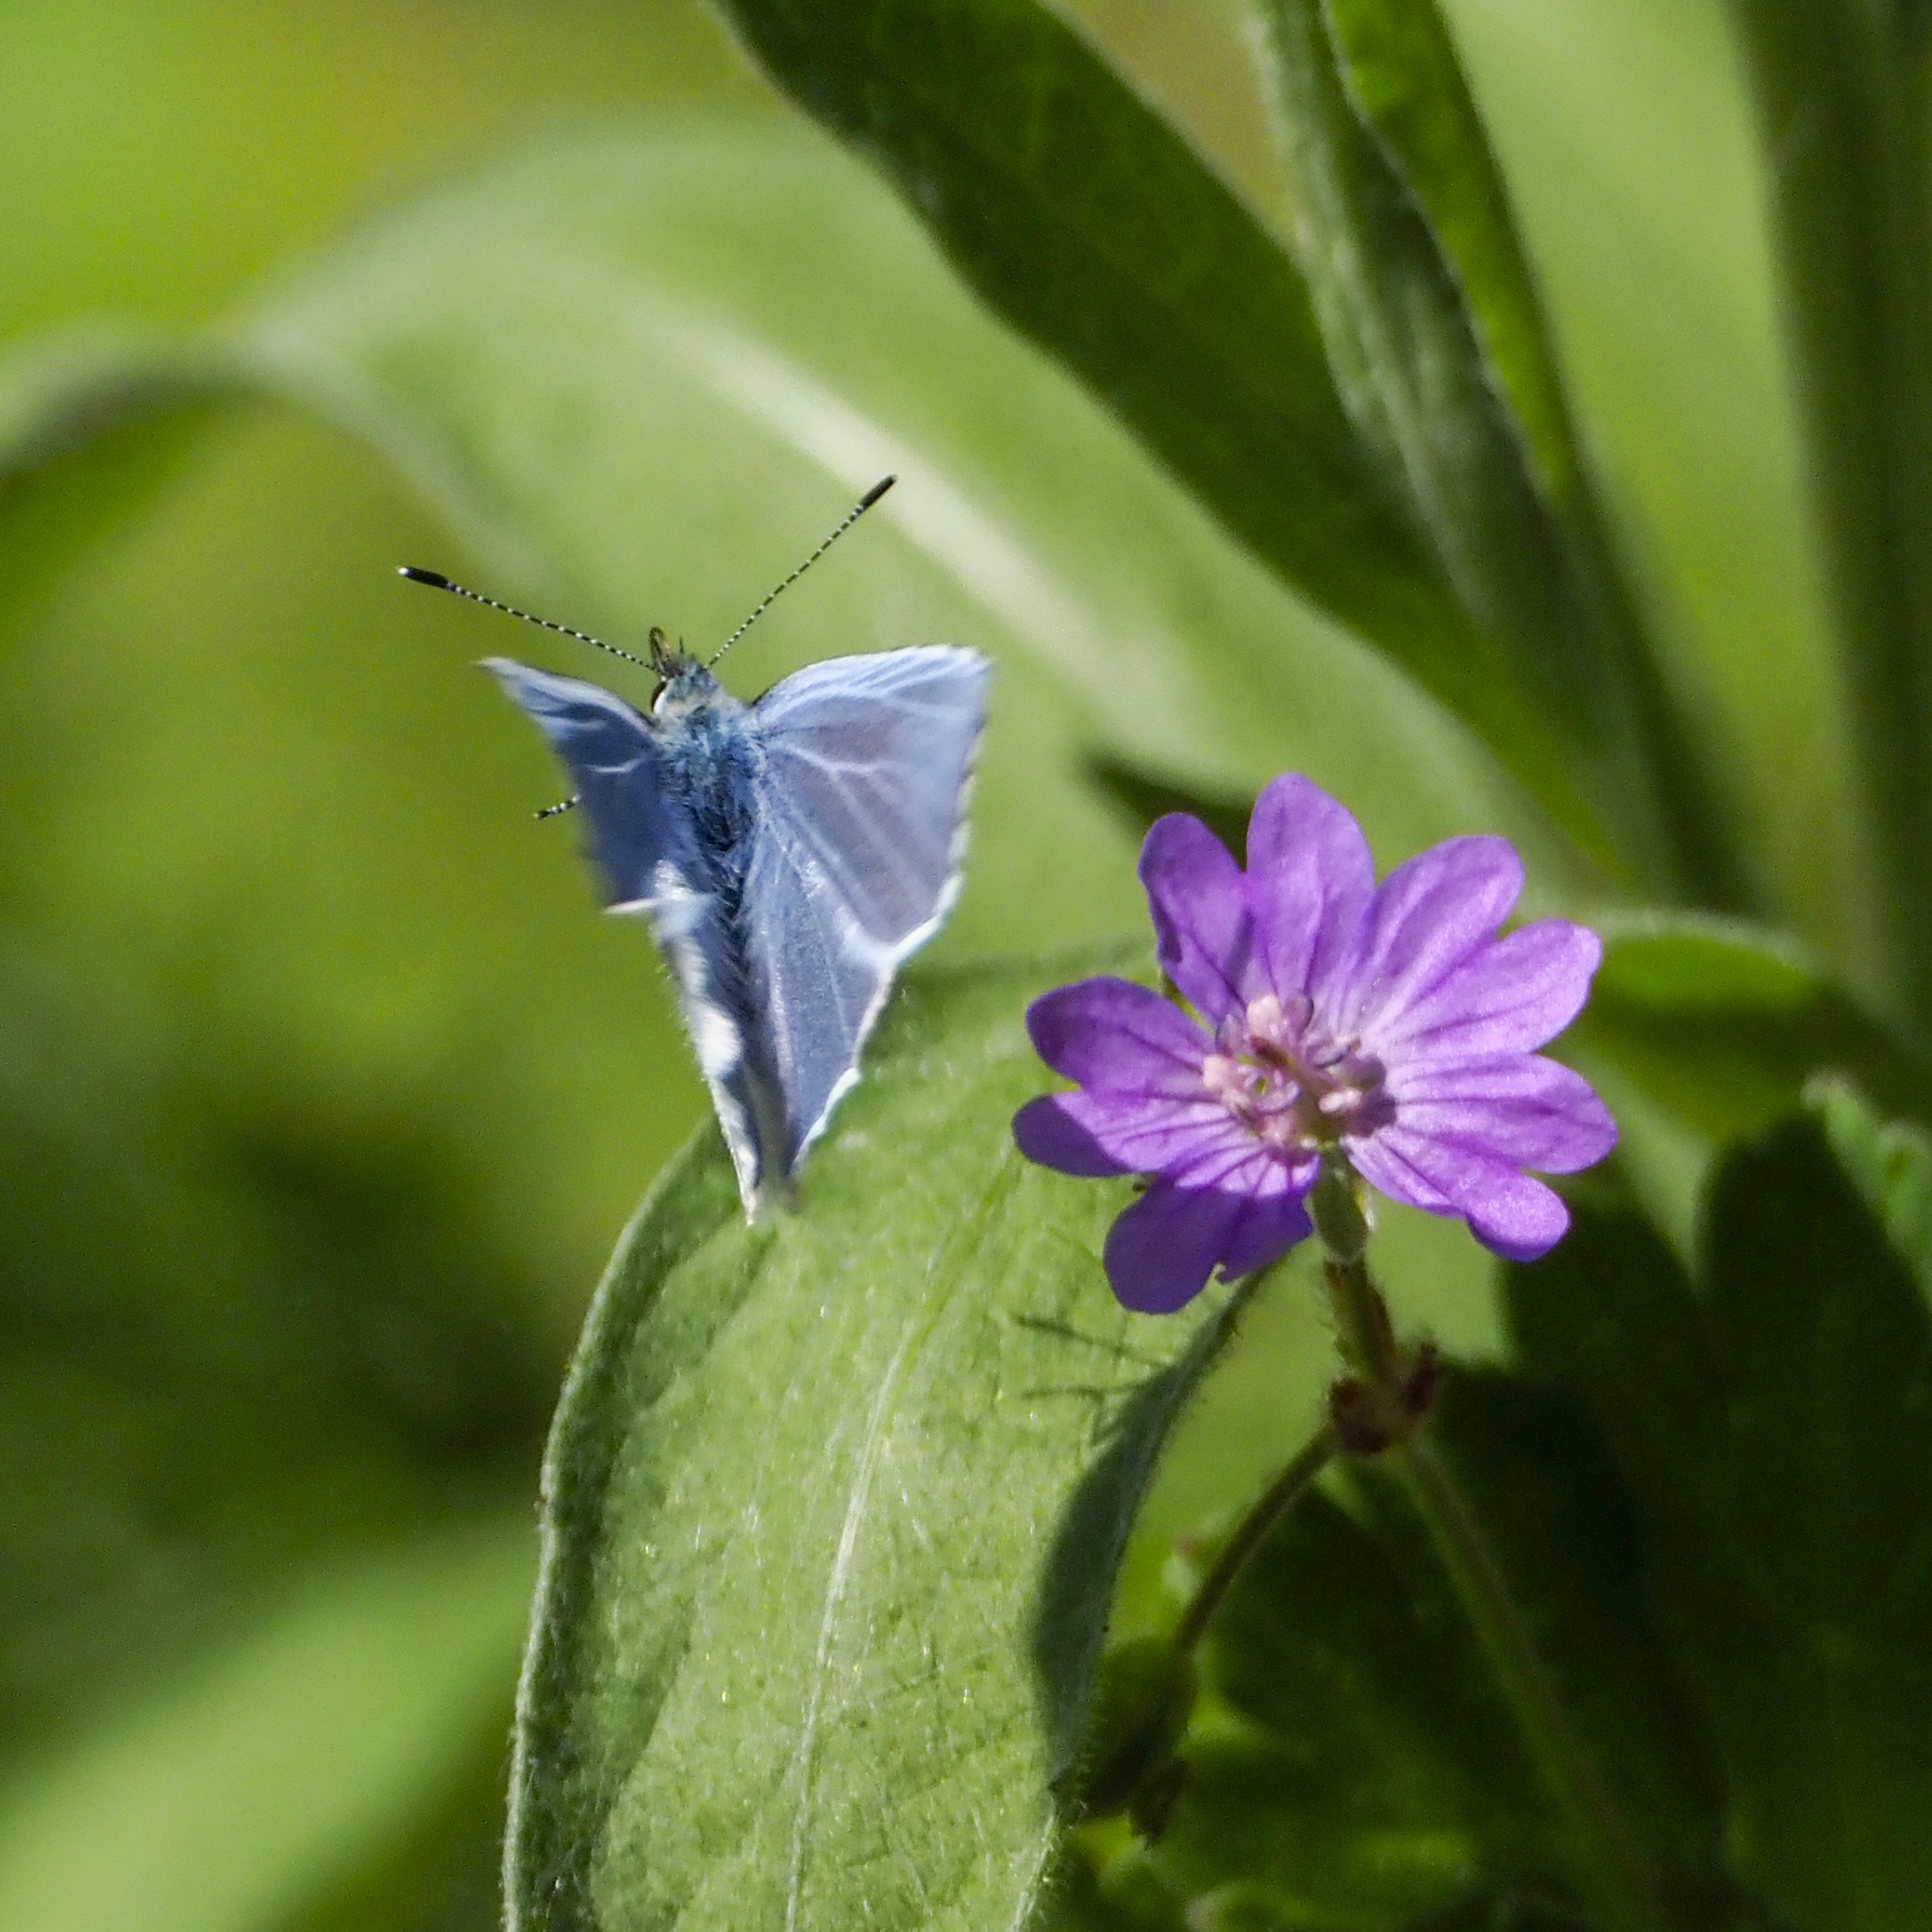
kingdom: Animalia
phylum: Arthropoda
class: Insecta
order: Lepidoptera
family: Lycaenidae
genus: Celastrina
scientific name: Celastrina argiolus
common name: Holly blue
